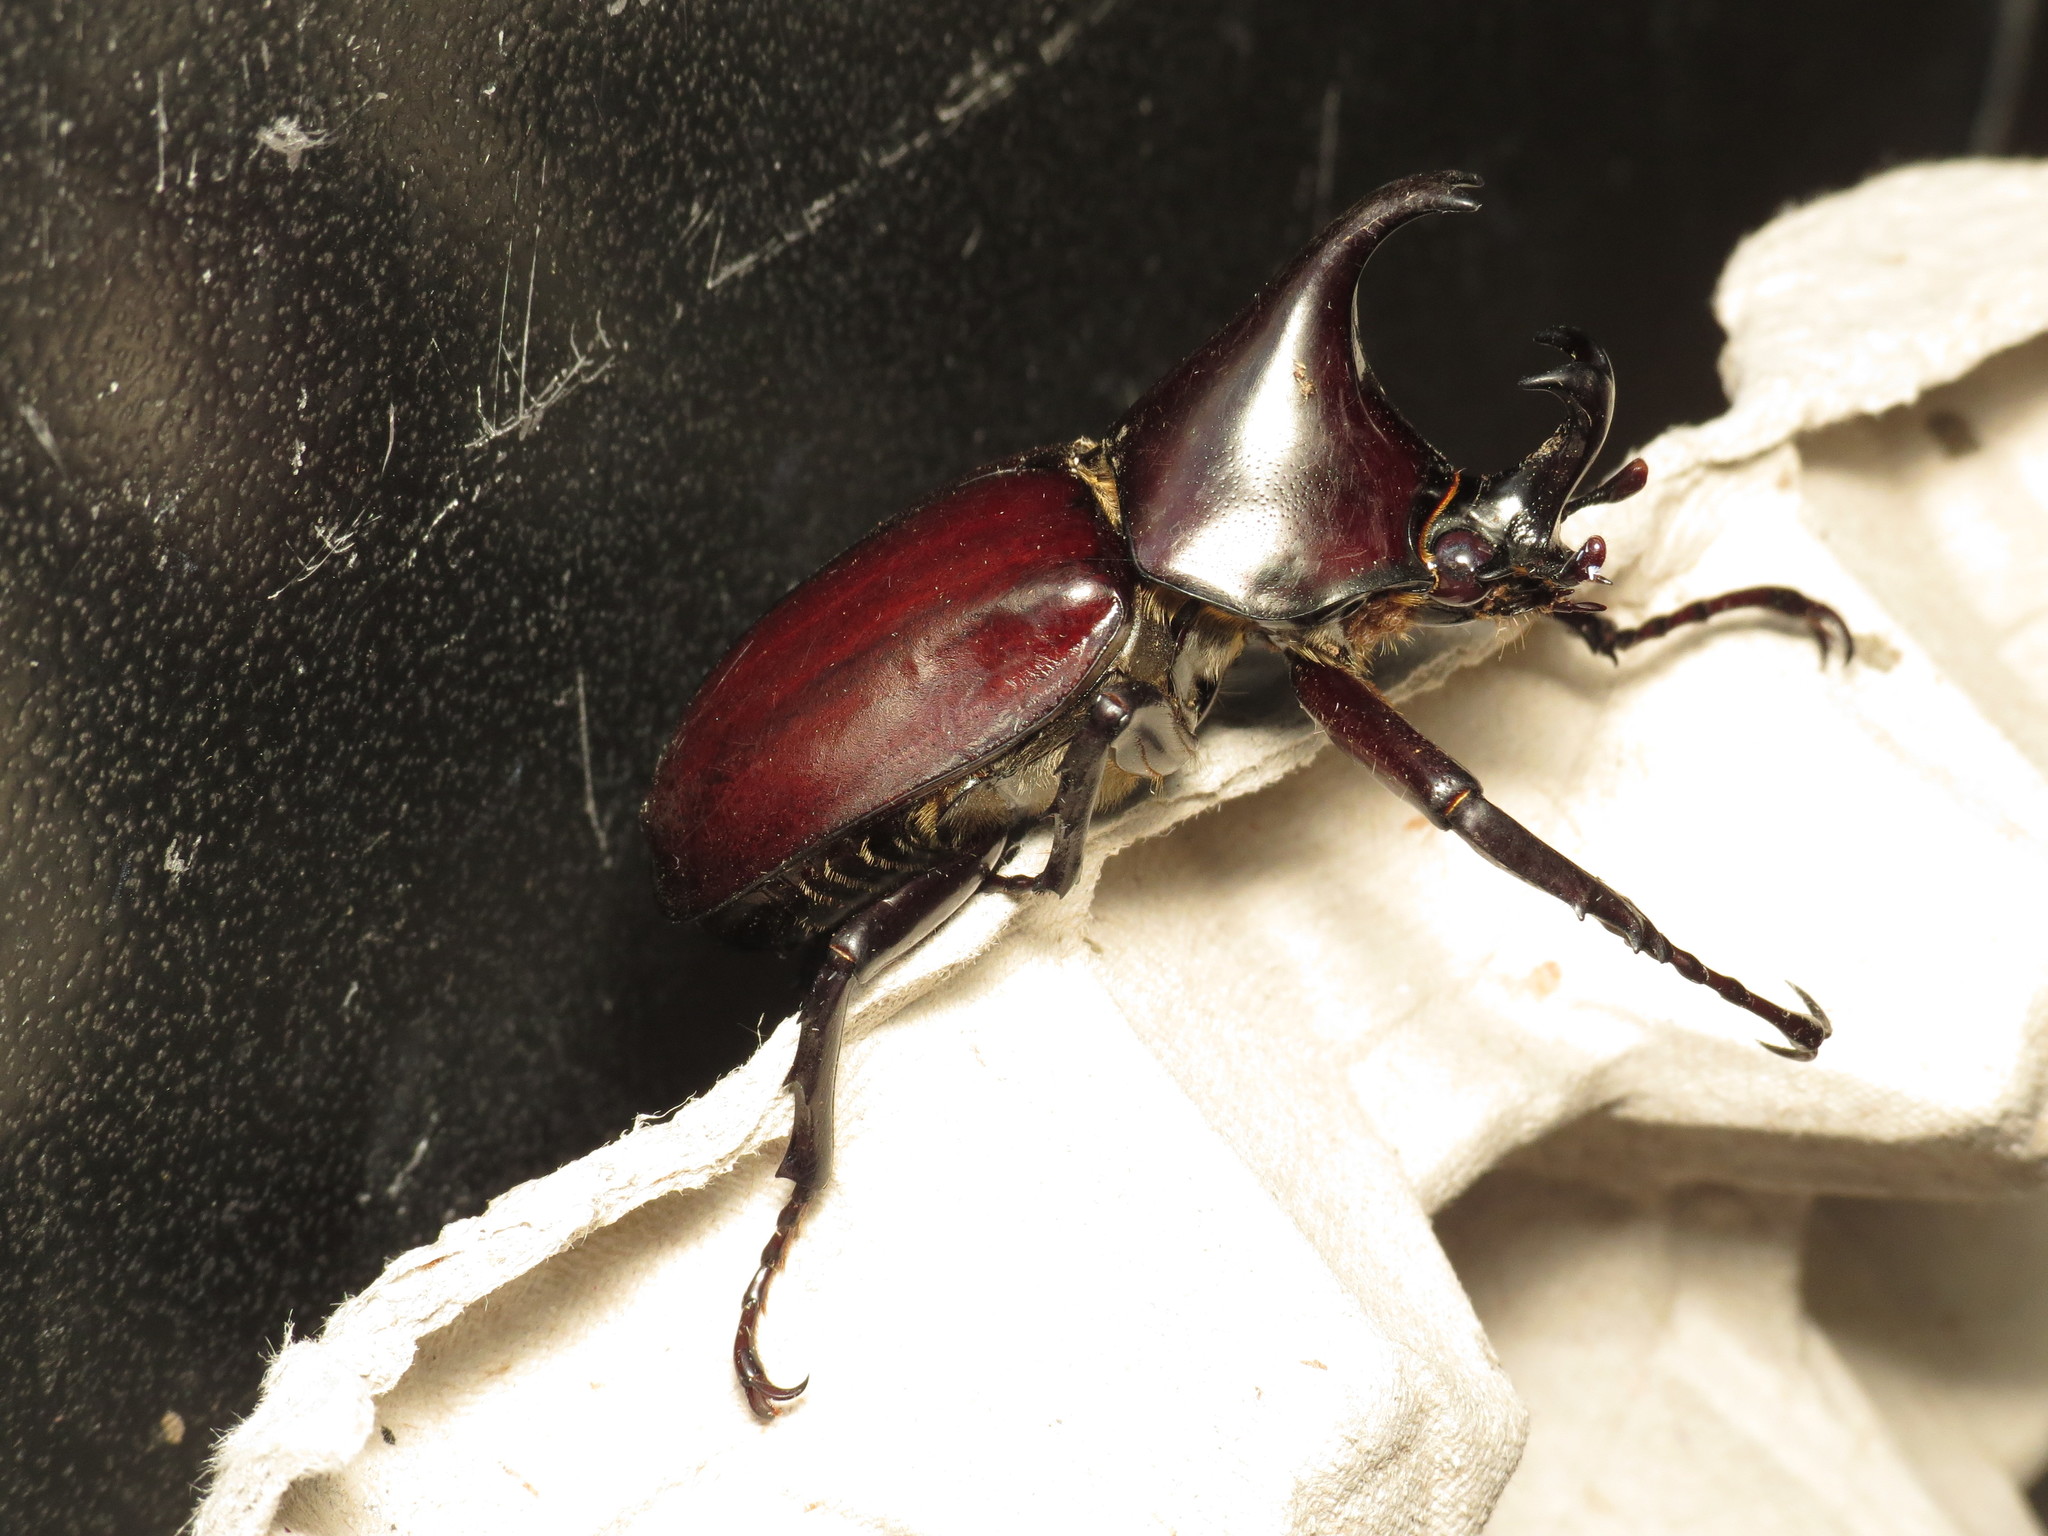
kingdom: Animalia
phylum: Arthropoda
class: Insecta
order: Coleoptera
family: Scarabaeidae
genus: Xylotrupes
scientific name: Xylotrupes australicus
